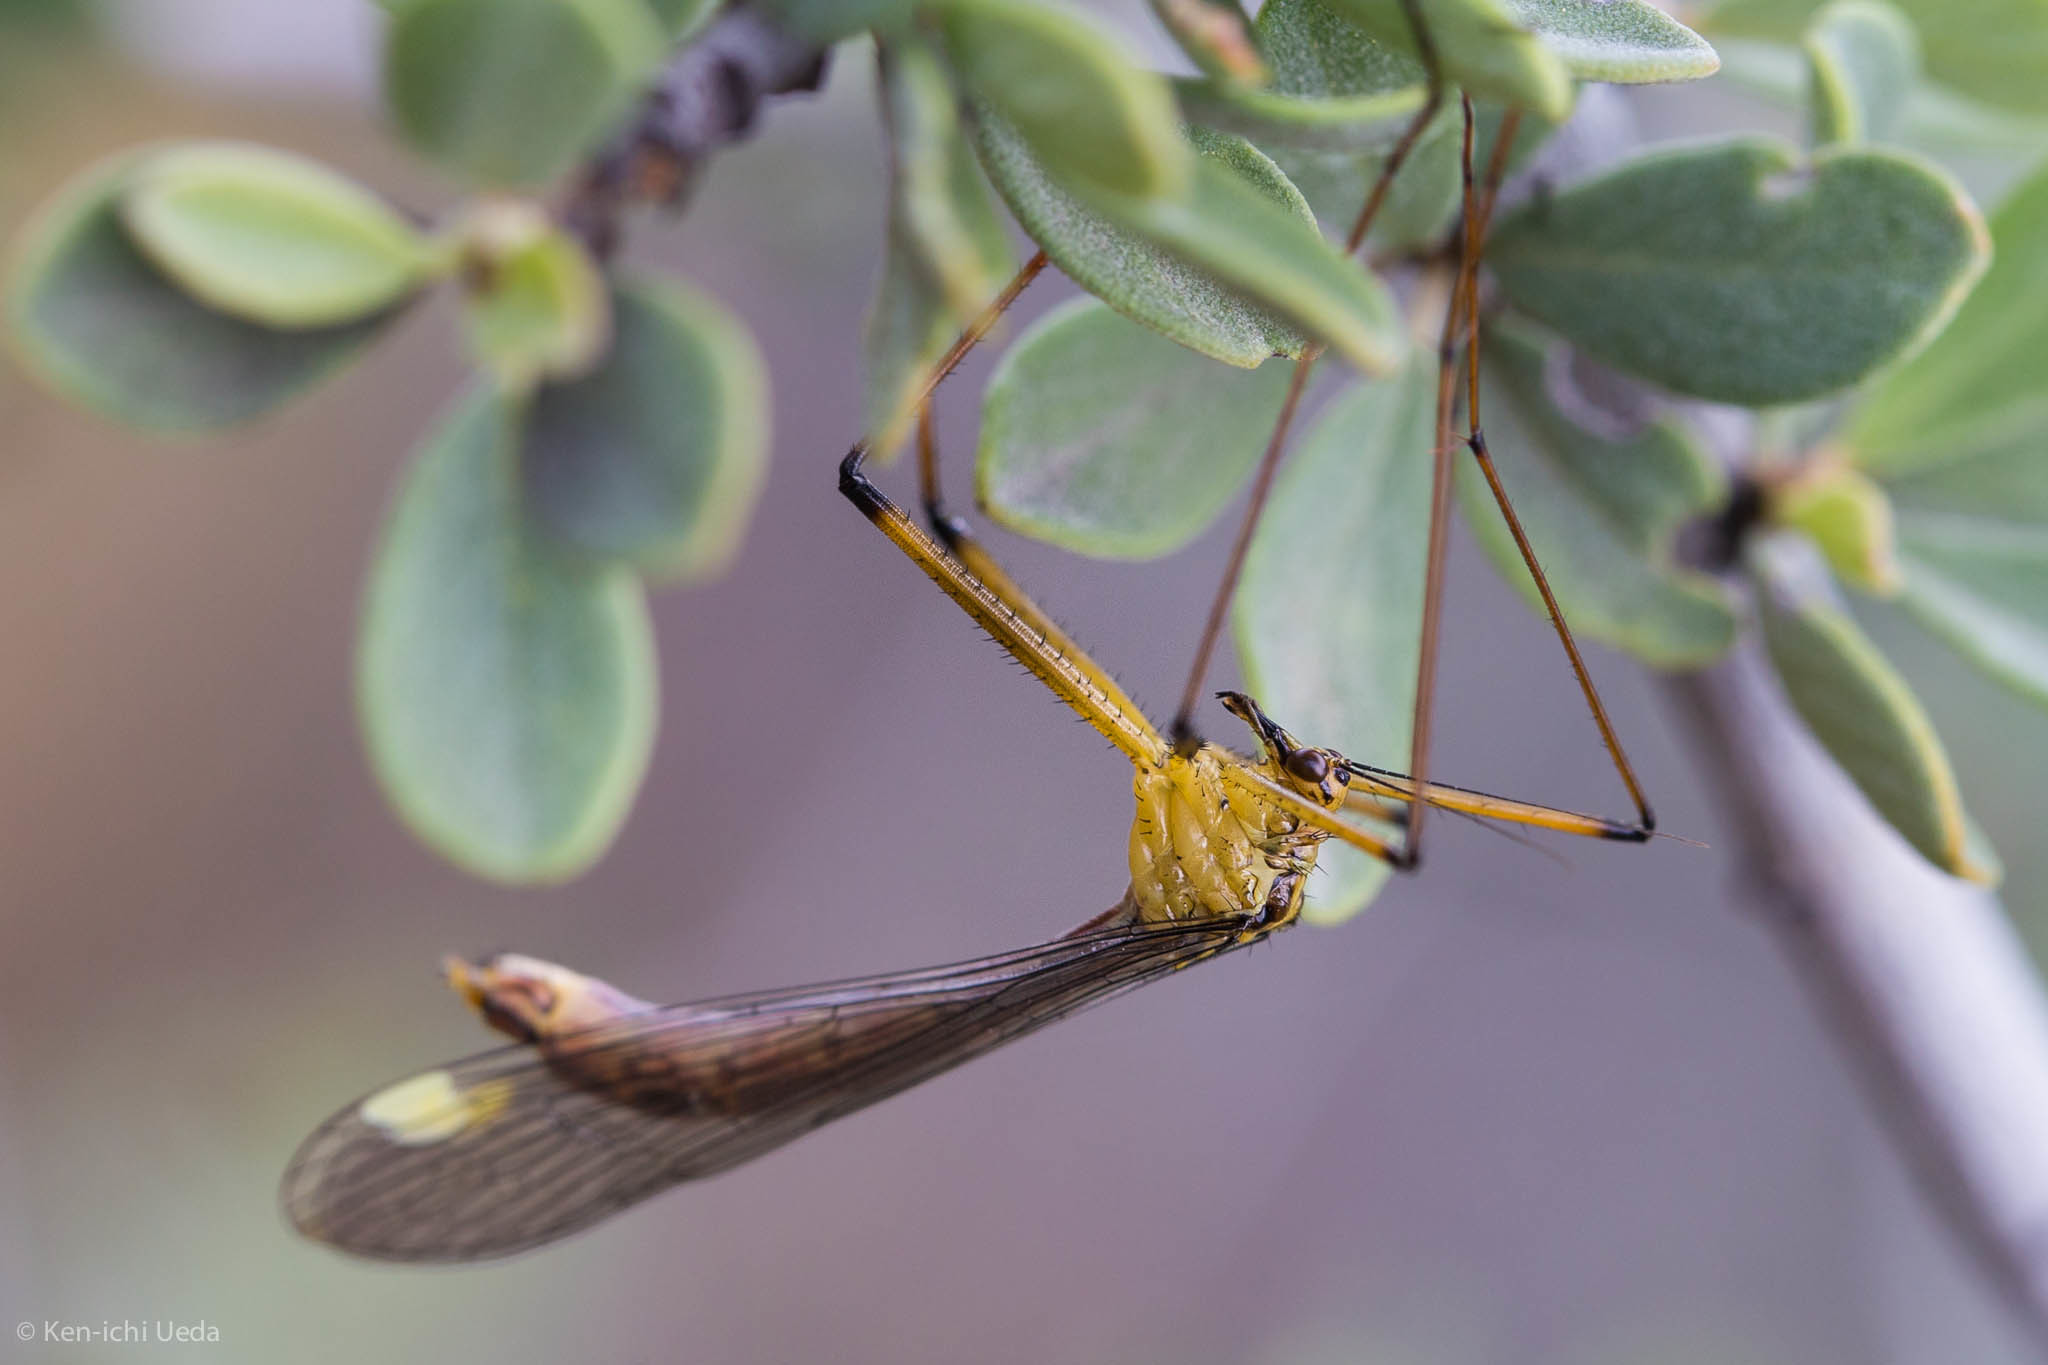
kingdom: Animalia
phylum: Arthropoda
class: Insecta
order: Mecoptera
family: Bittacidae
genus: Bittacus
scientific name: Bittacus chlorostigma
